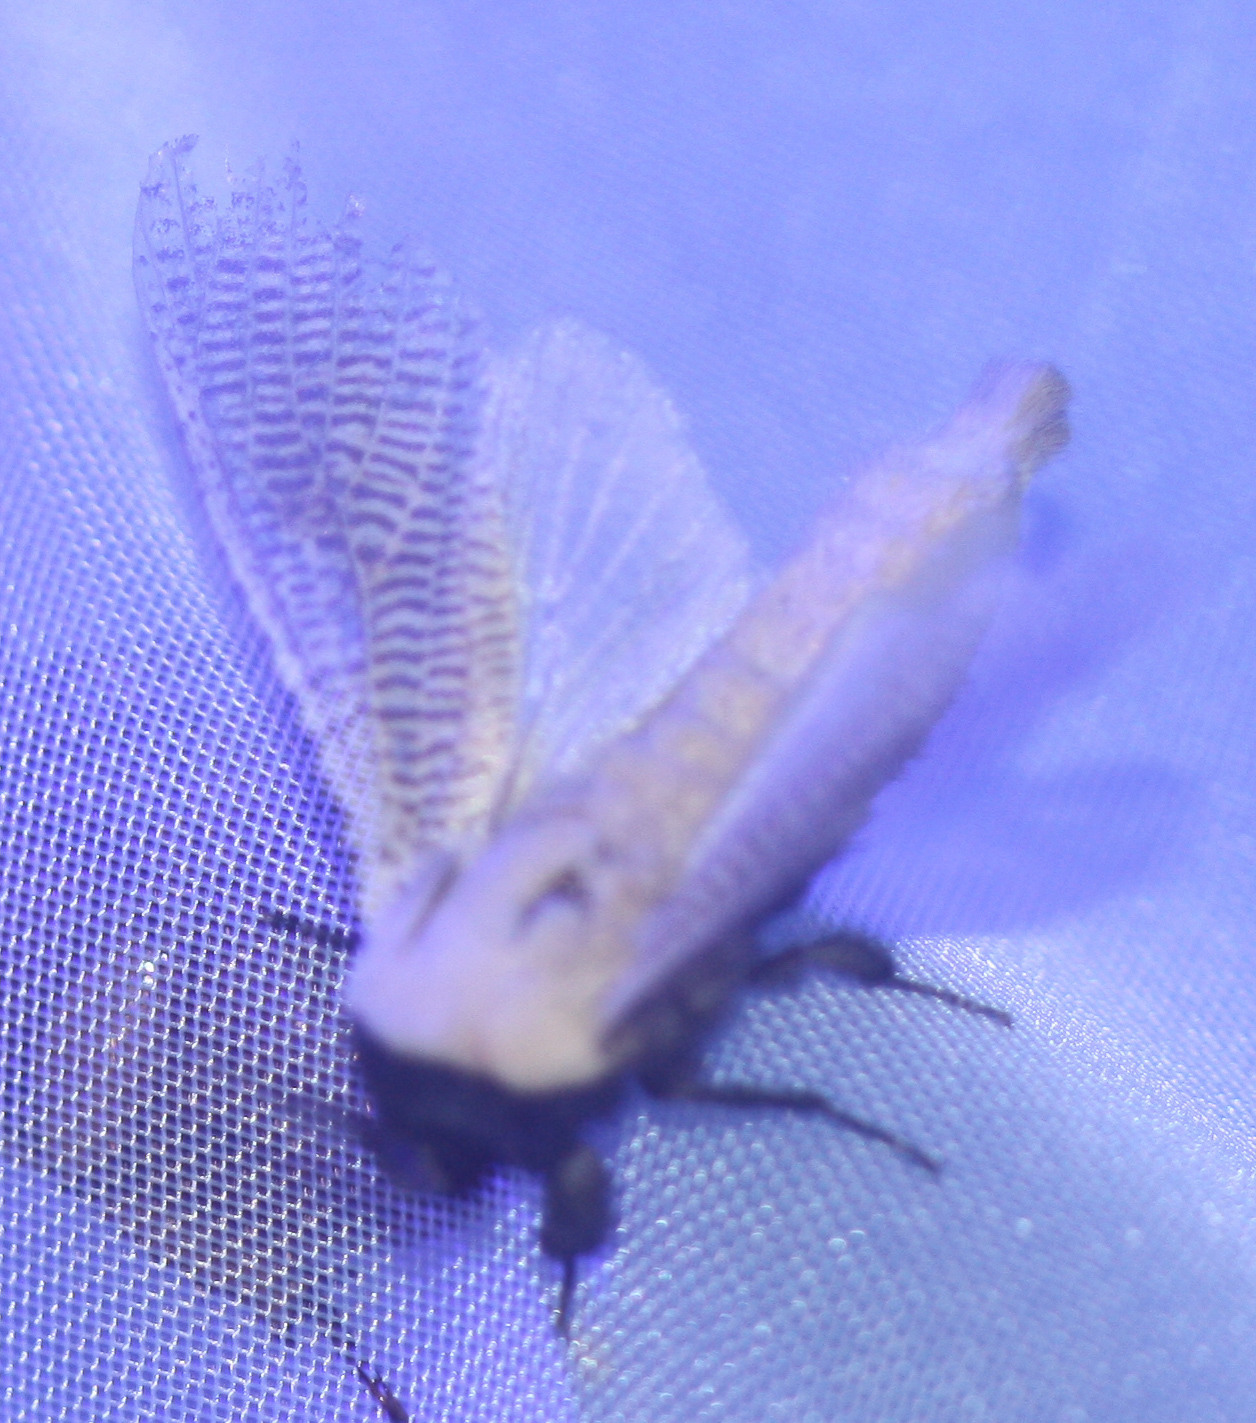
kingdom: Animalia
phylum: Arthropoda
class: Insecta
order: Lepidoptera
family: Cossidae
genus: Morpheis
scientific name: Morpheis
